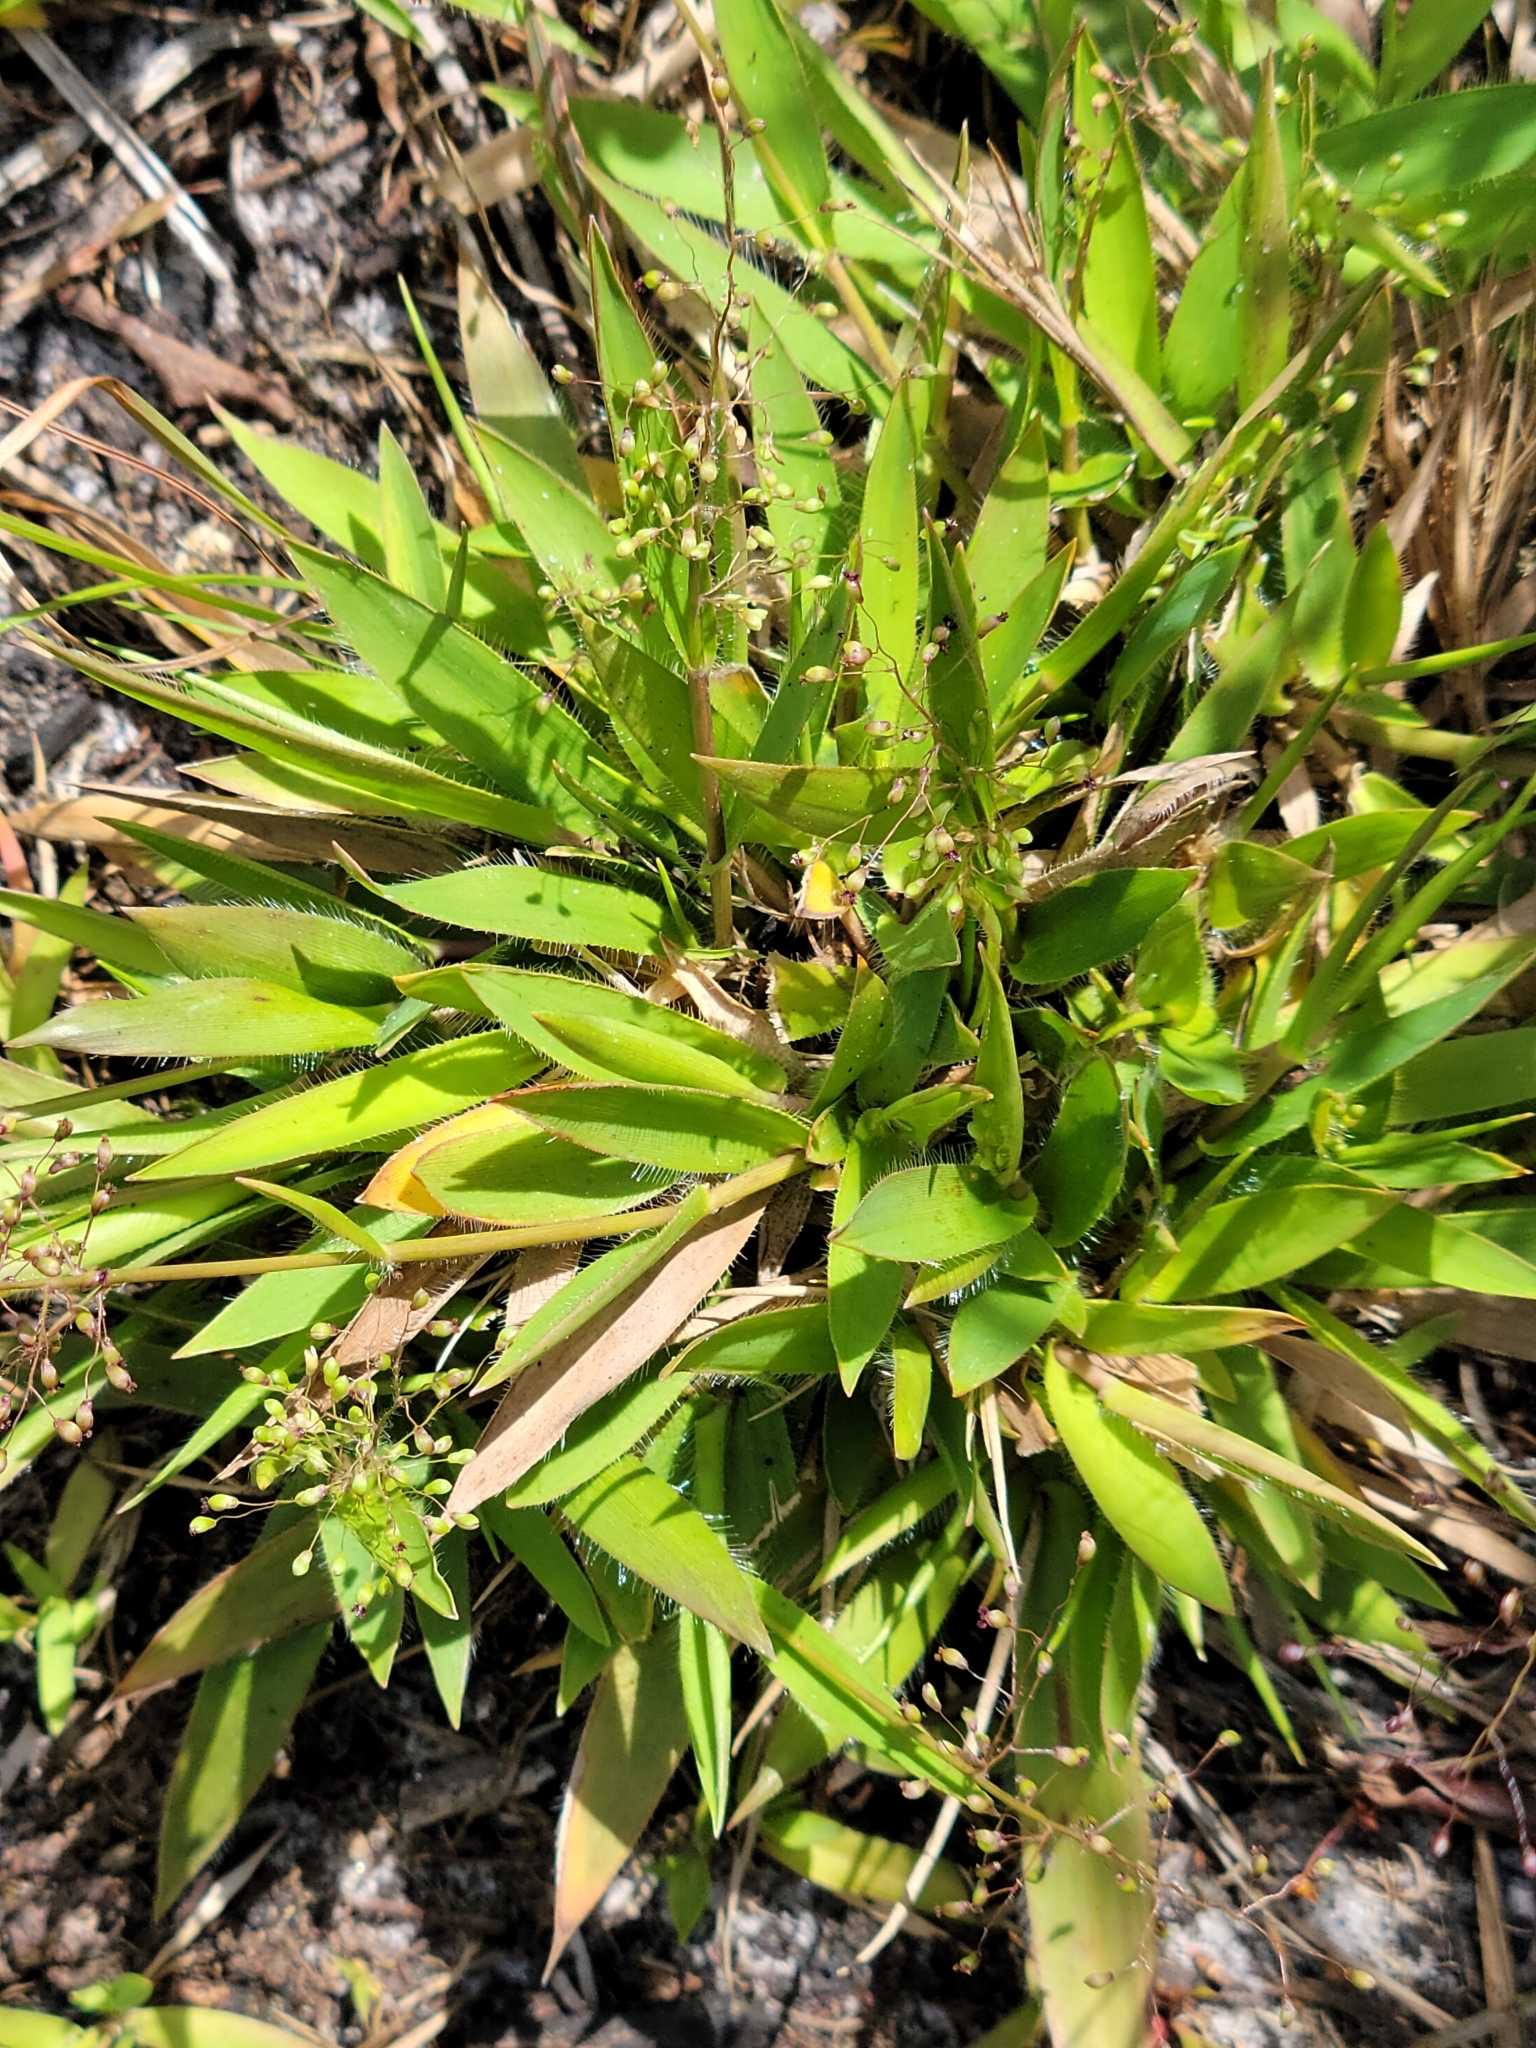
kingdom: Plantae
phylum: Tracheophyta
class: Liliopsida
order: Poales
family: Poaceae
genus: Dichanthelium
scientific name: Dichanthelium strigosum
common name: Cushion-tuft panic grass
